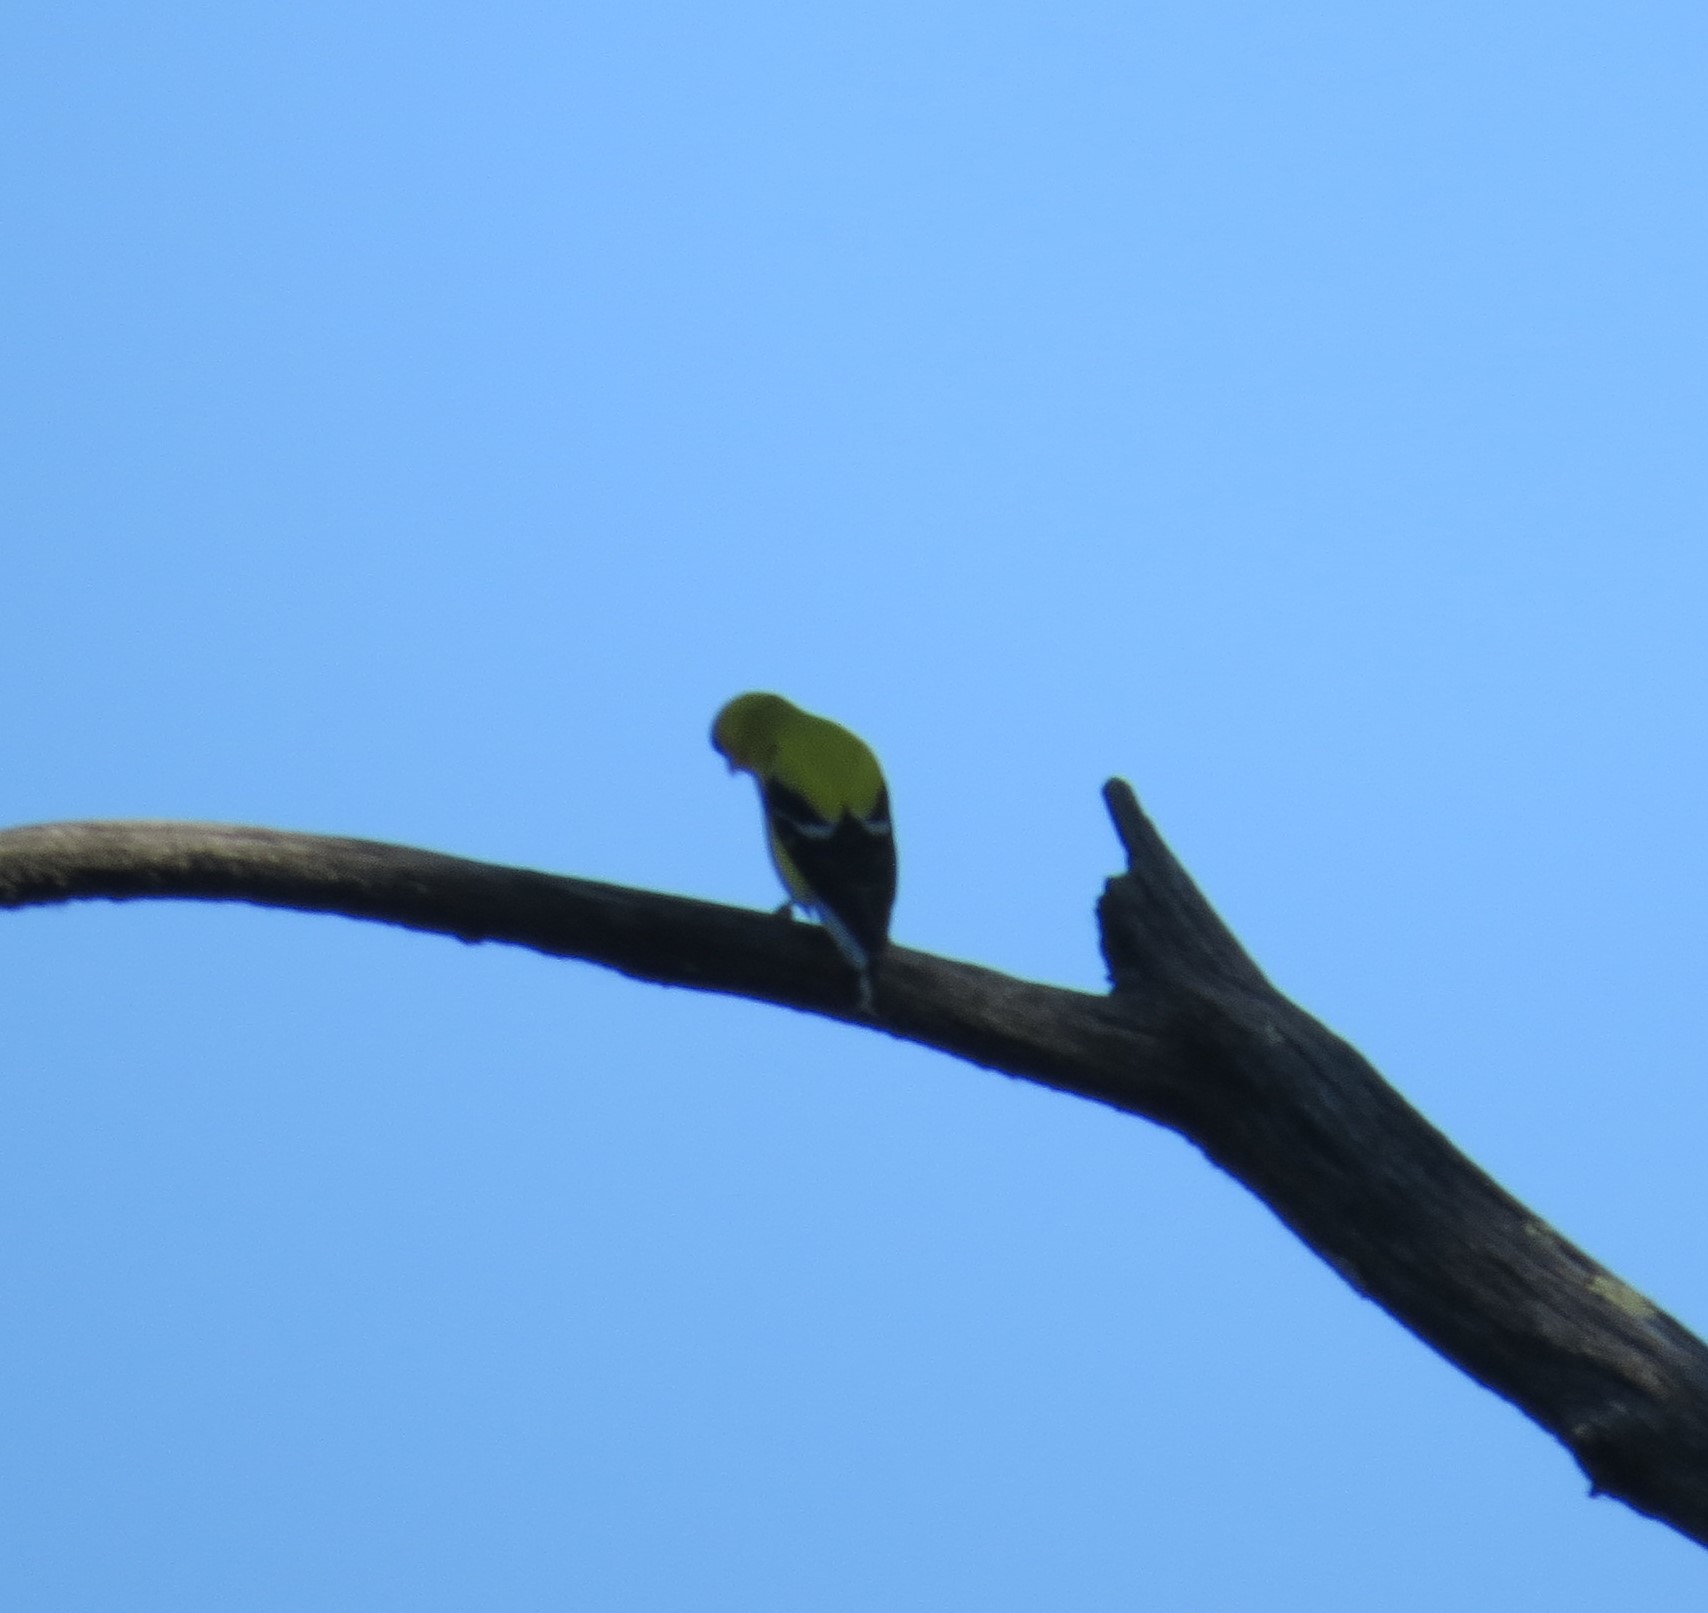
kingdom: Animalia
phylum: Chordata
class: Aves
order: Passeriformes
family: Fringillidae
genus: Spinus
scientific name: Spinus tristis
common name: American goldfinch
